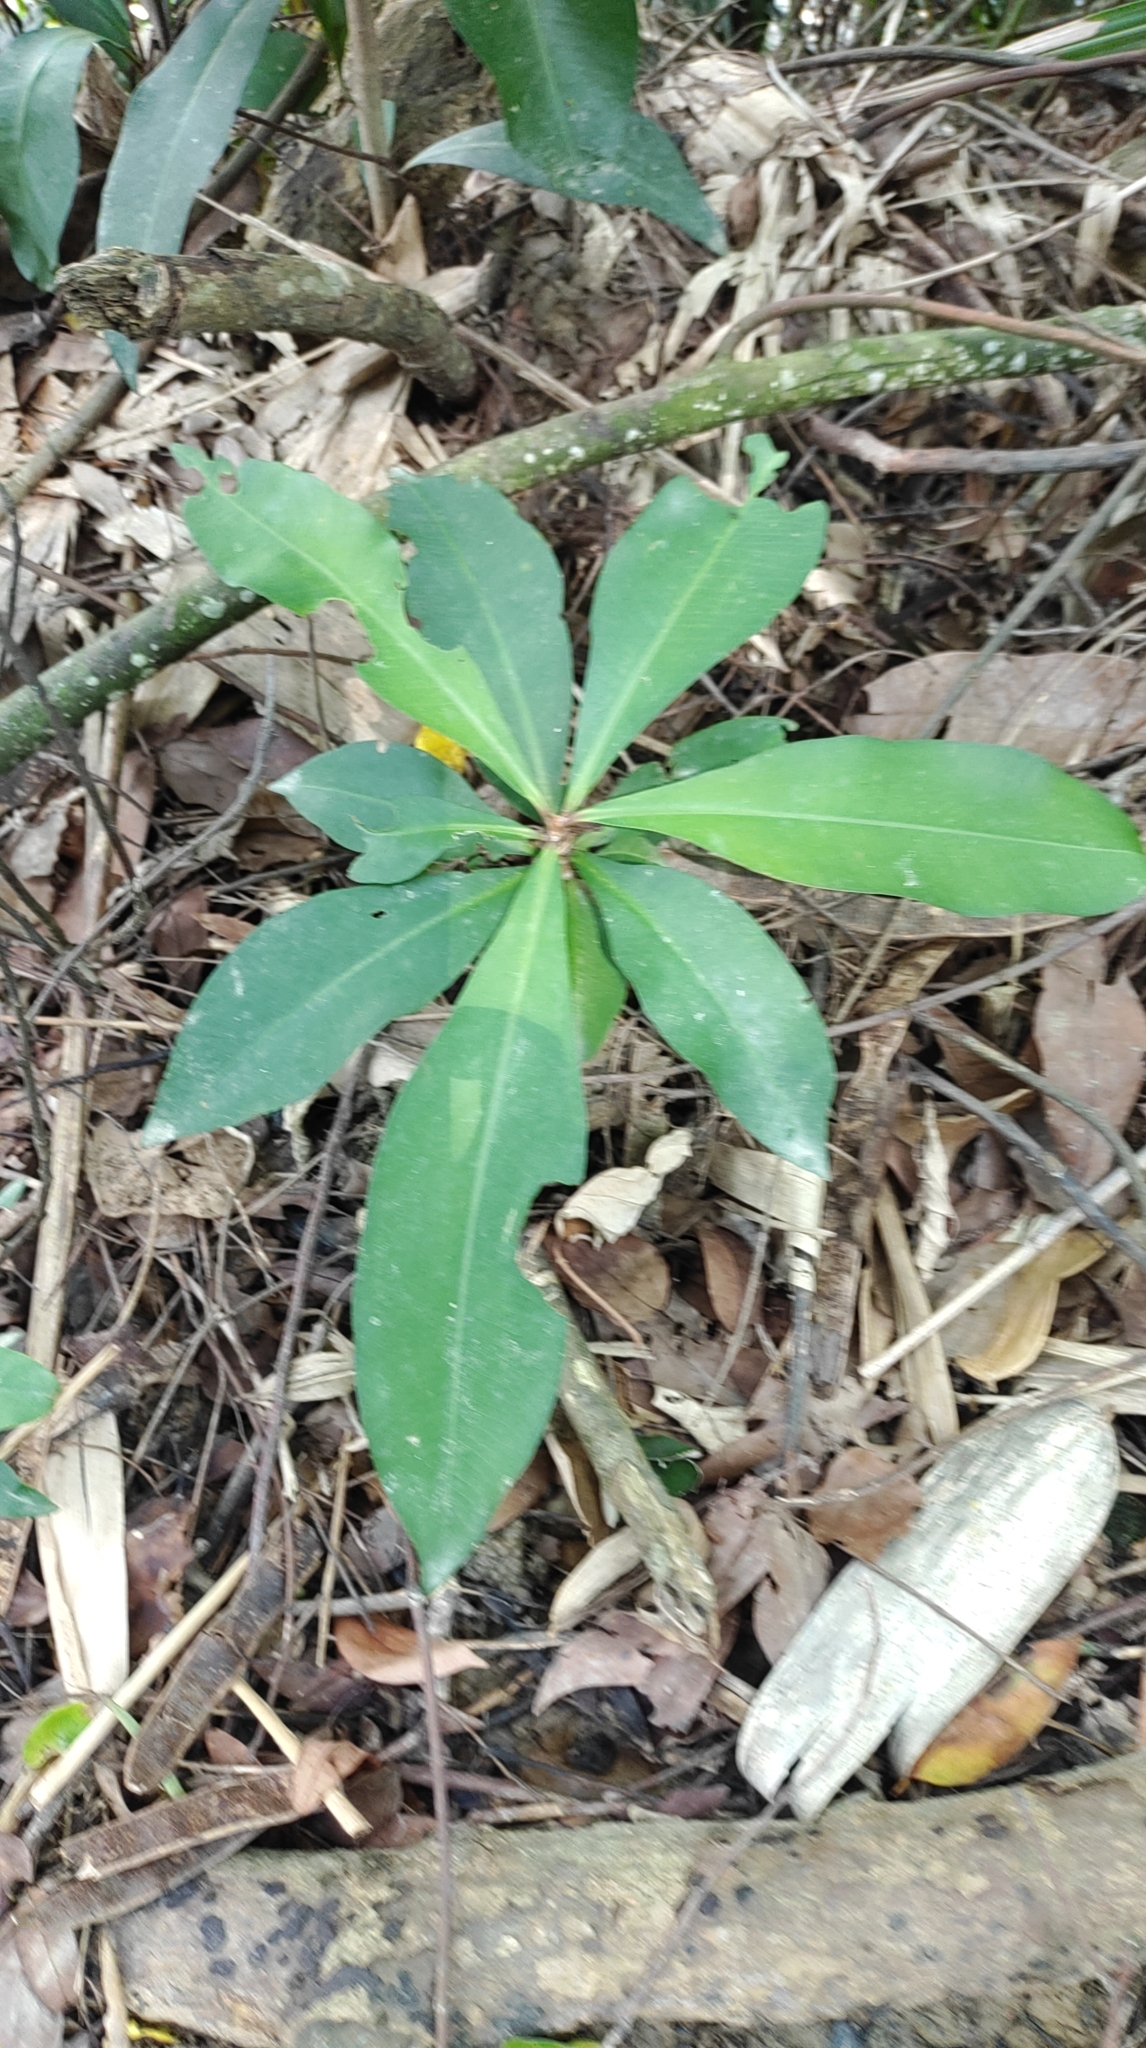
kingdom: Plantae
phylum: Tracheophyta
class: Magnoliopsida
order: Ericales
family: Primulaceae
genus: Ardisia
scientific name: Ardisia sieboldii
